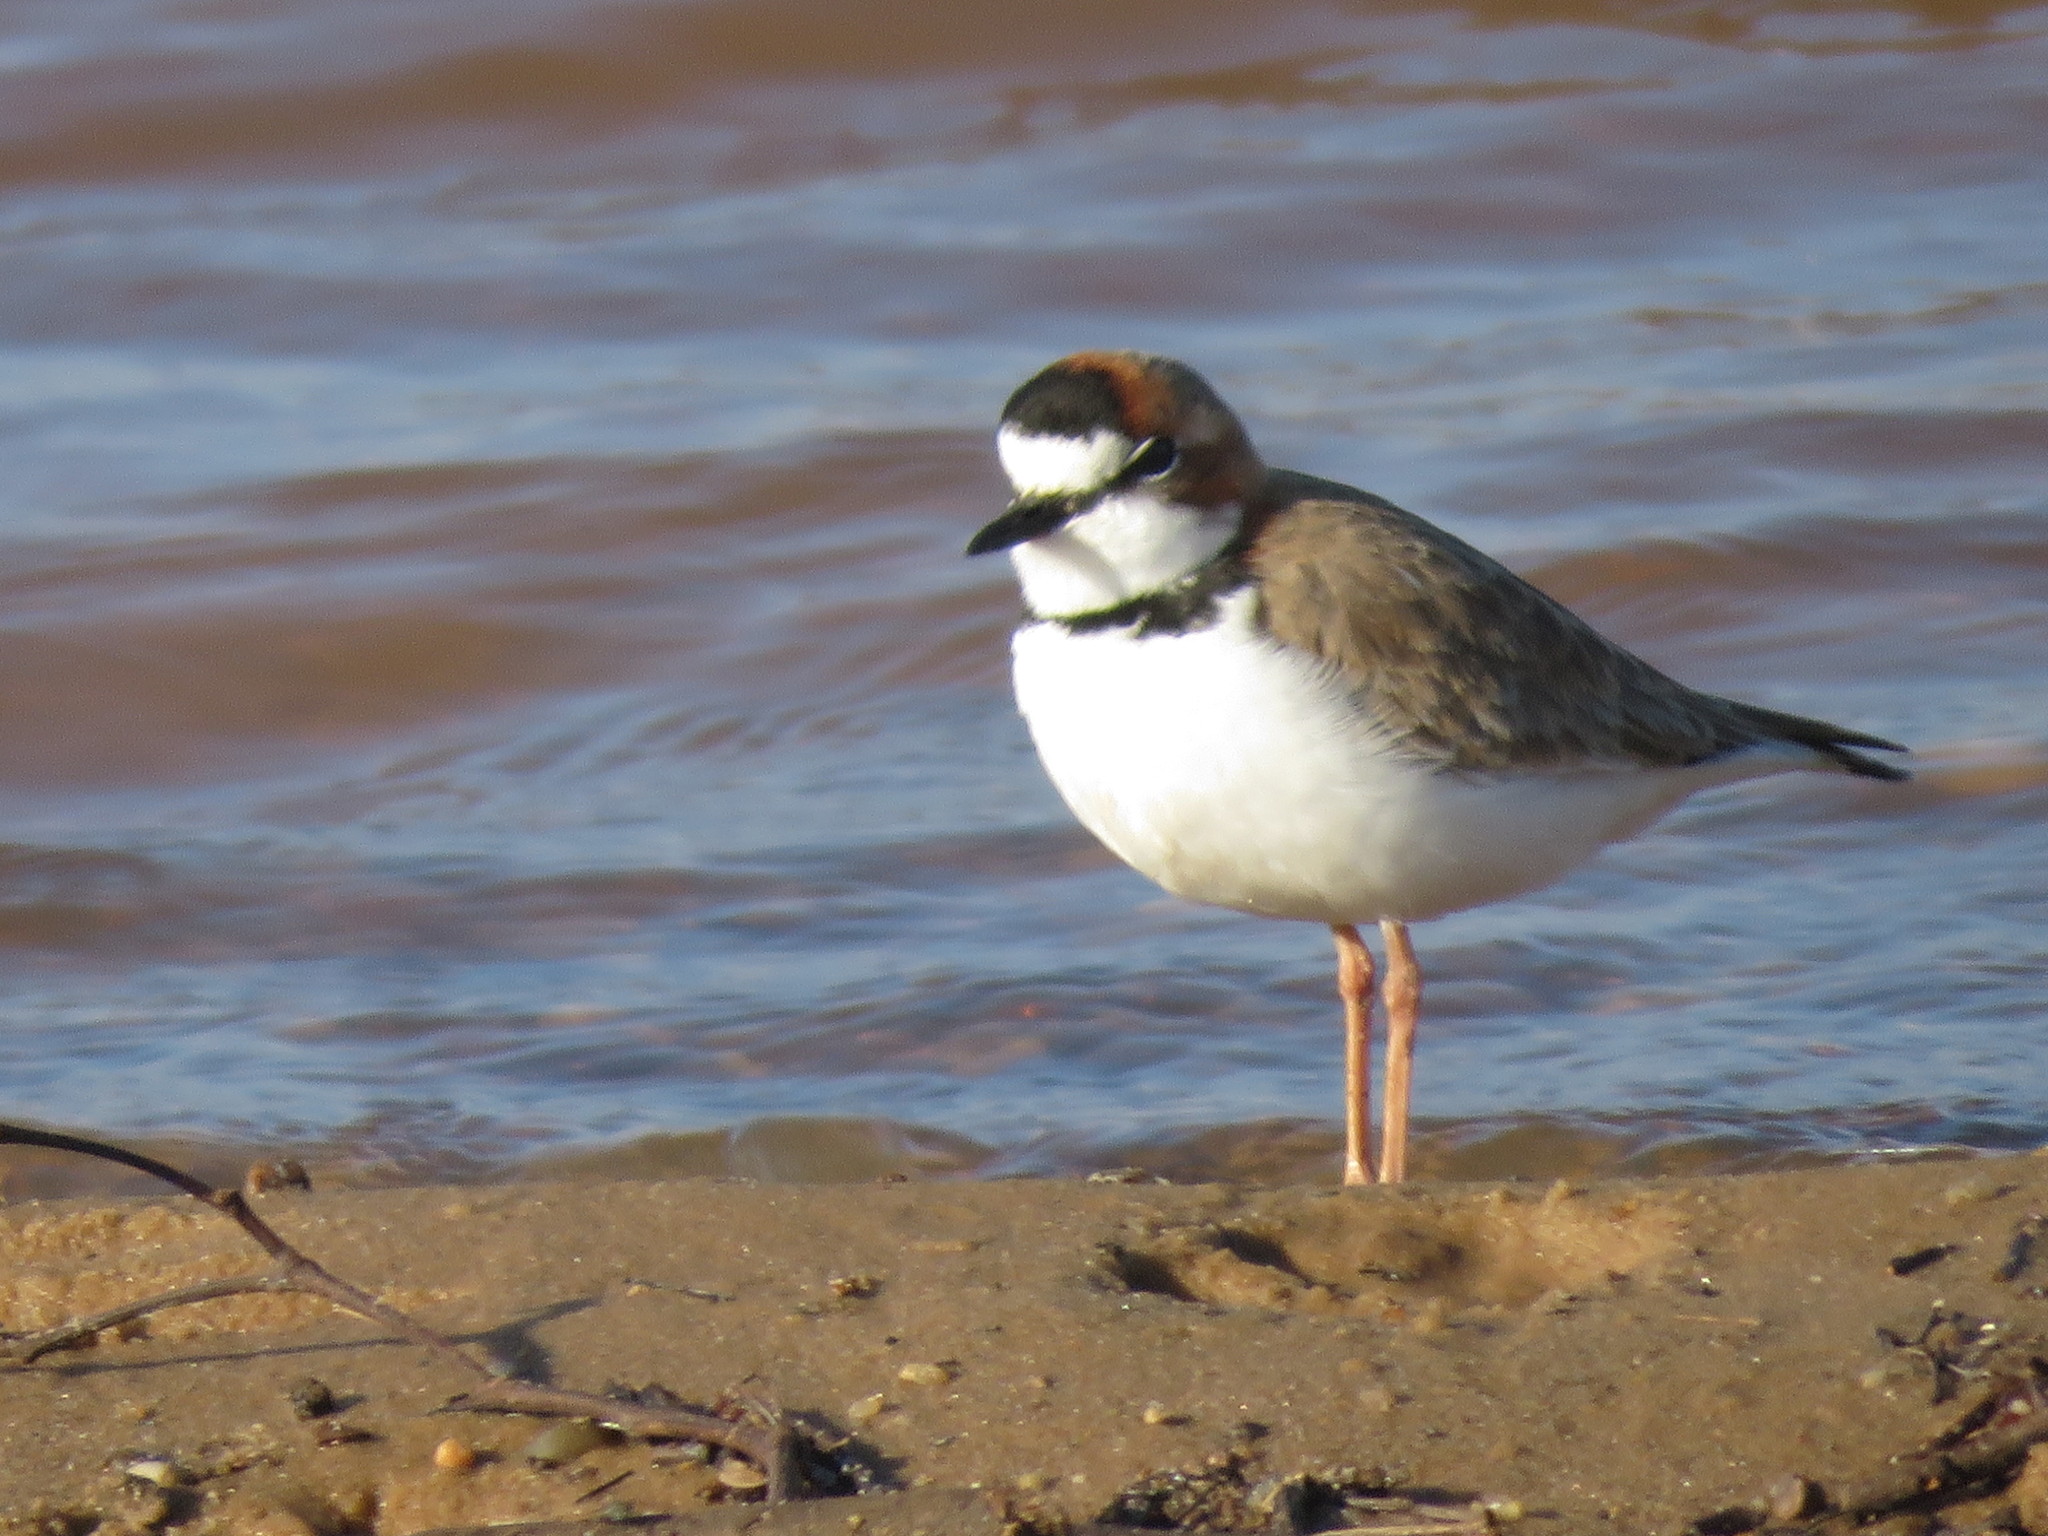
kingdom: Animalia
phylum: Chordata
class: Aves
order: Charadriiformes
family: Charadriidae
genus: Anarhynchus
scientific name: Anarhynchus
